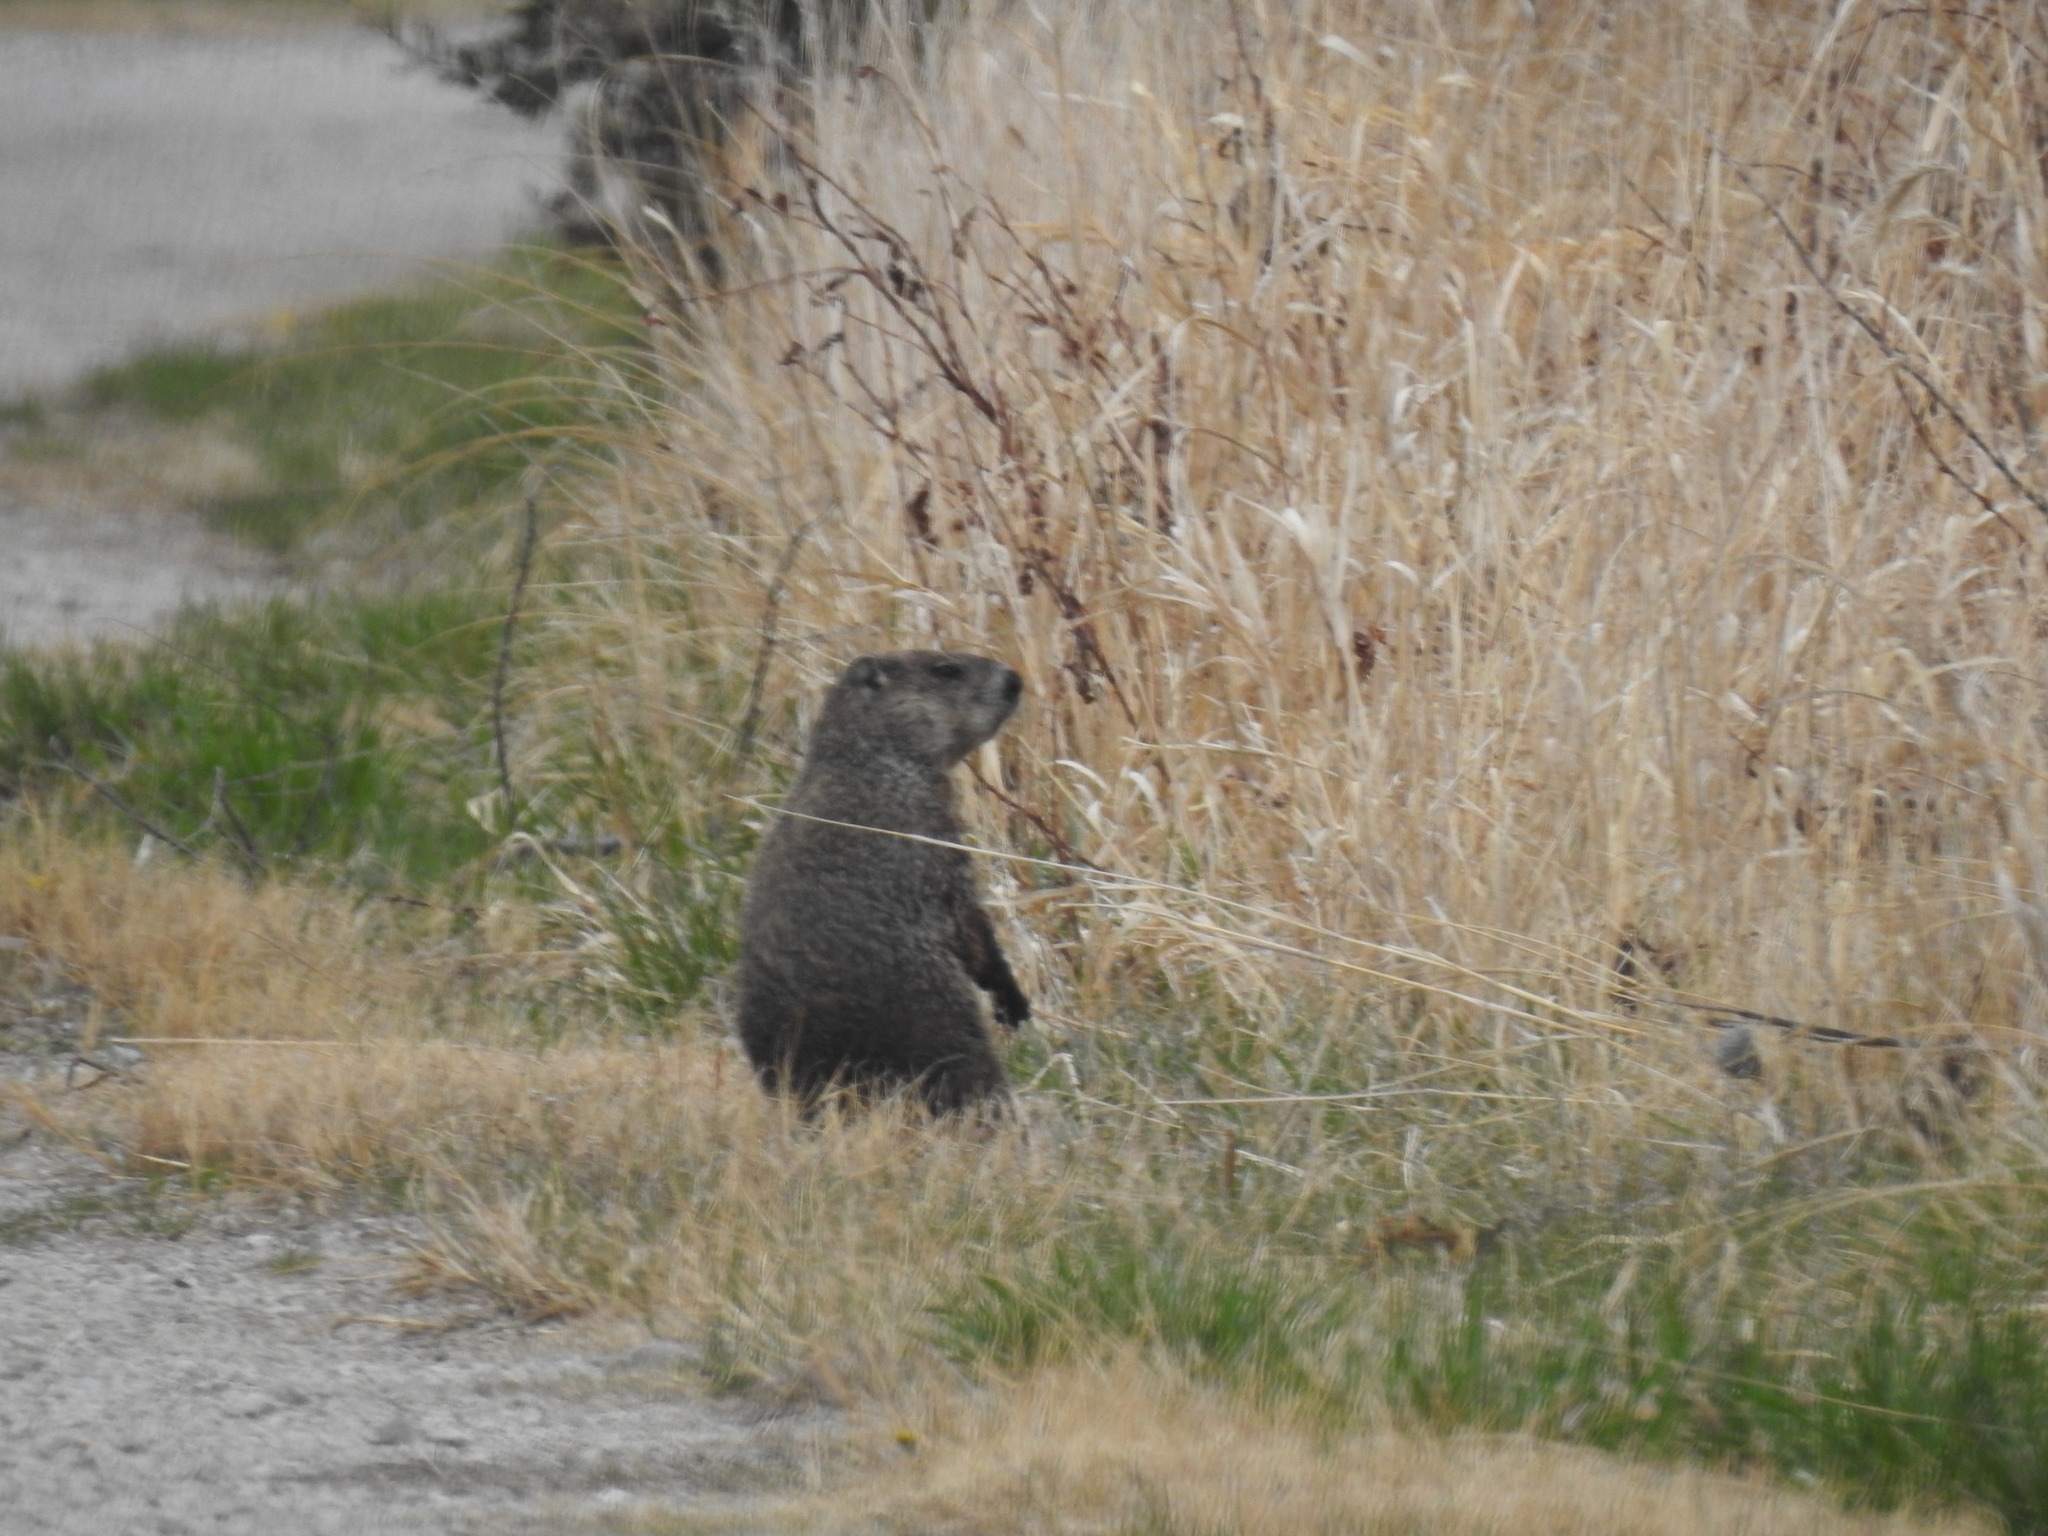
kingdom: Animalia
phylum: Chordata
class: Mammalia
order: Rodentia
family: Sciuridae
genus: Marmota
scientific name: Marmota monax
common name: Groundhog
